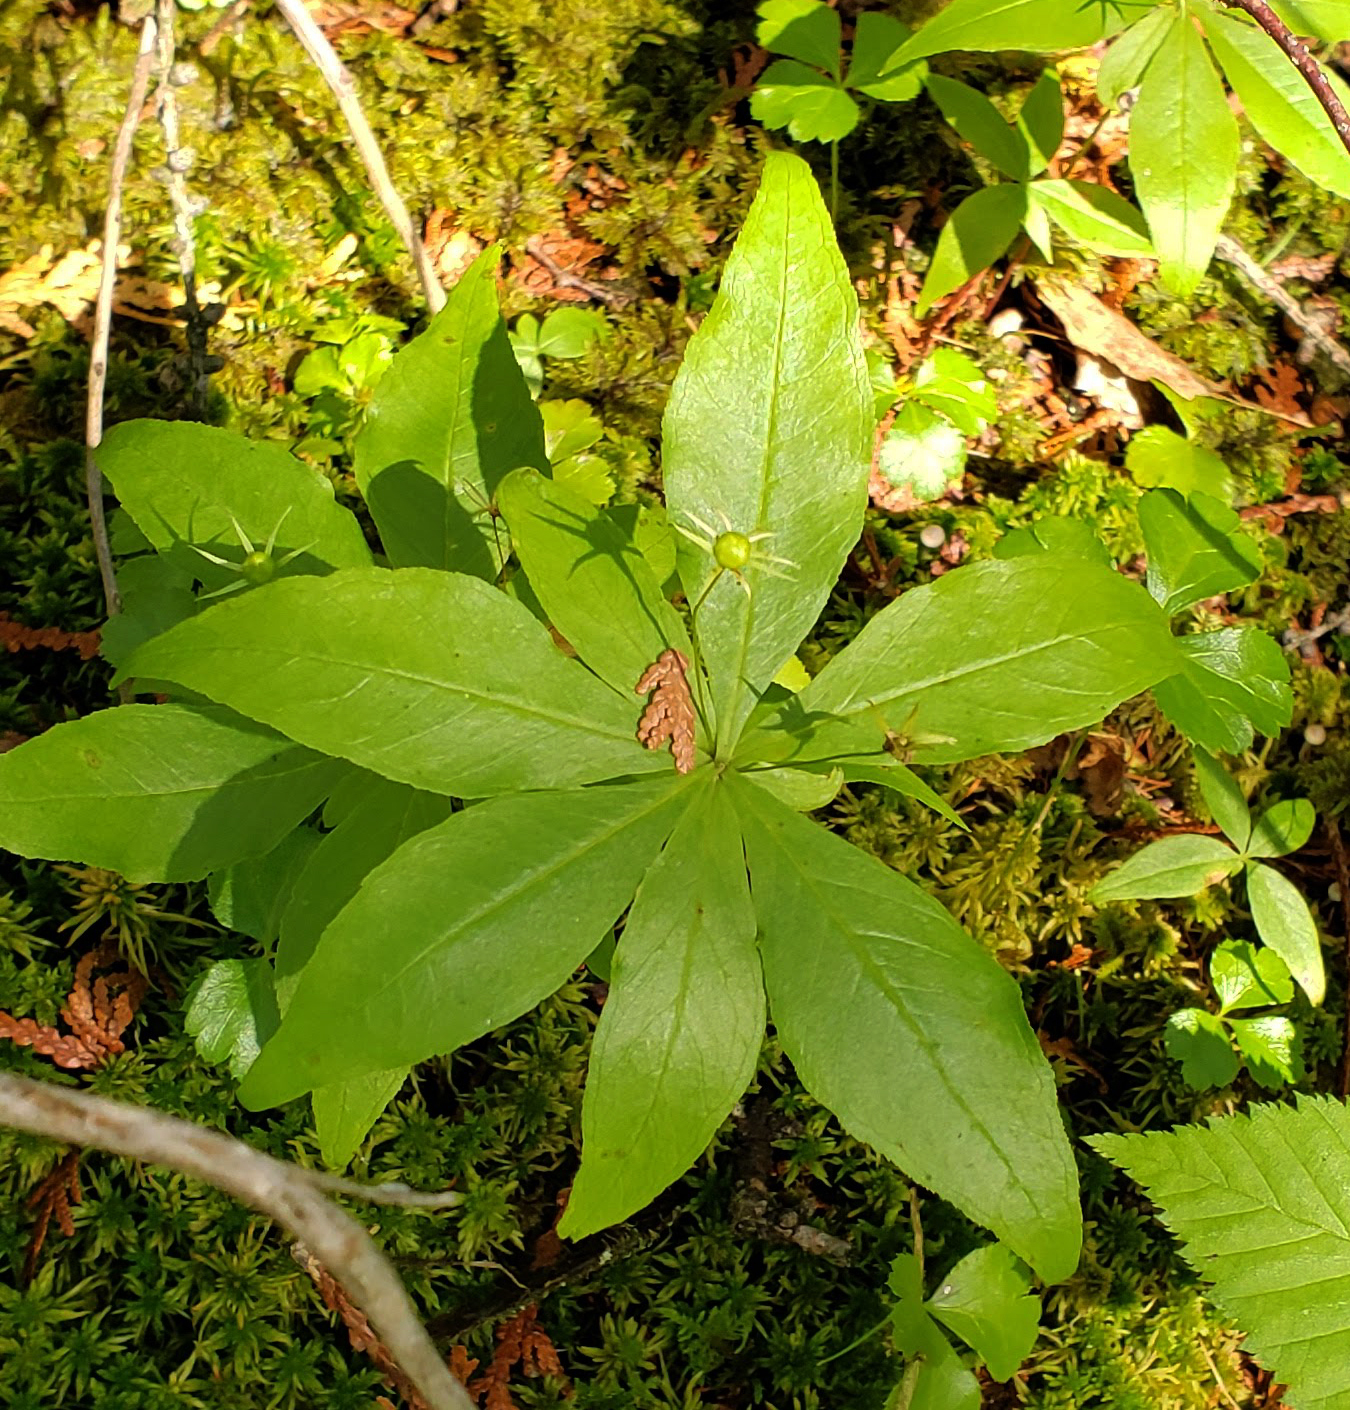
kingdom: Plantae
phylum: Tracheophyta
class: Magnoliopsida
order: Ericales
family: Primulaceae
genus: Lysimachia
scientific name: Lysimachia borealis
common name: American starflower
